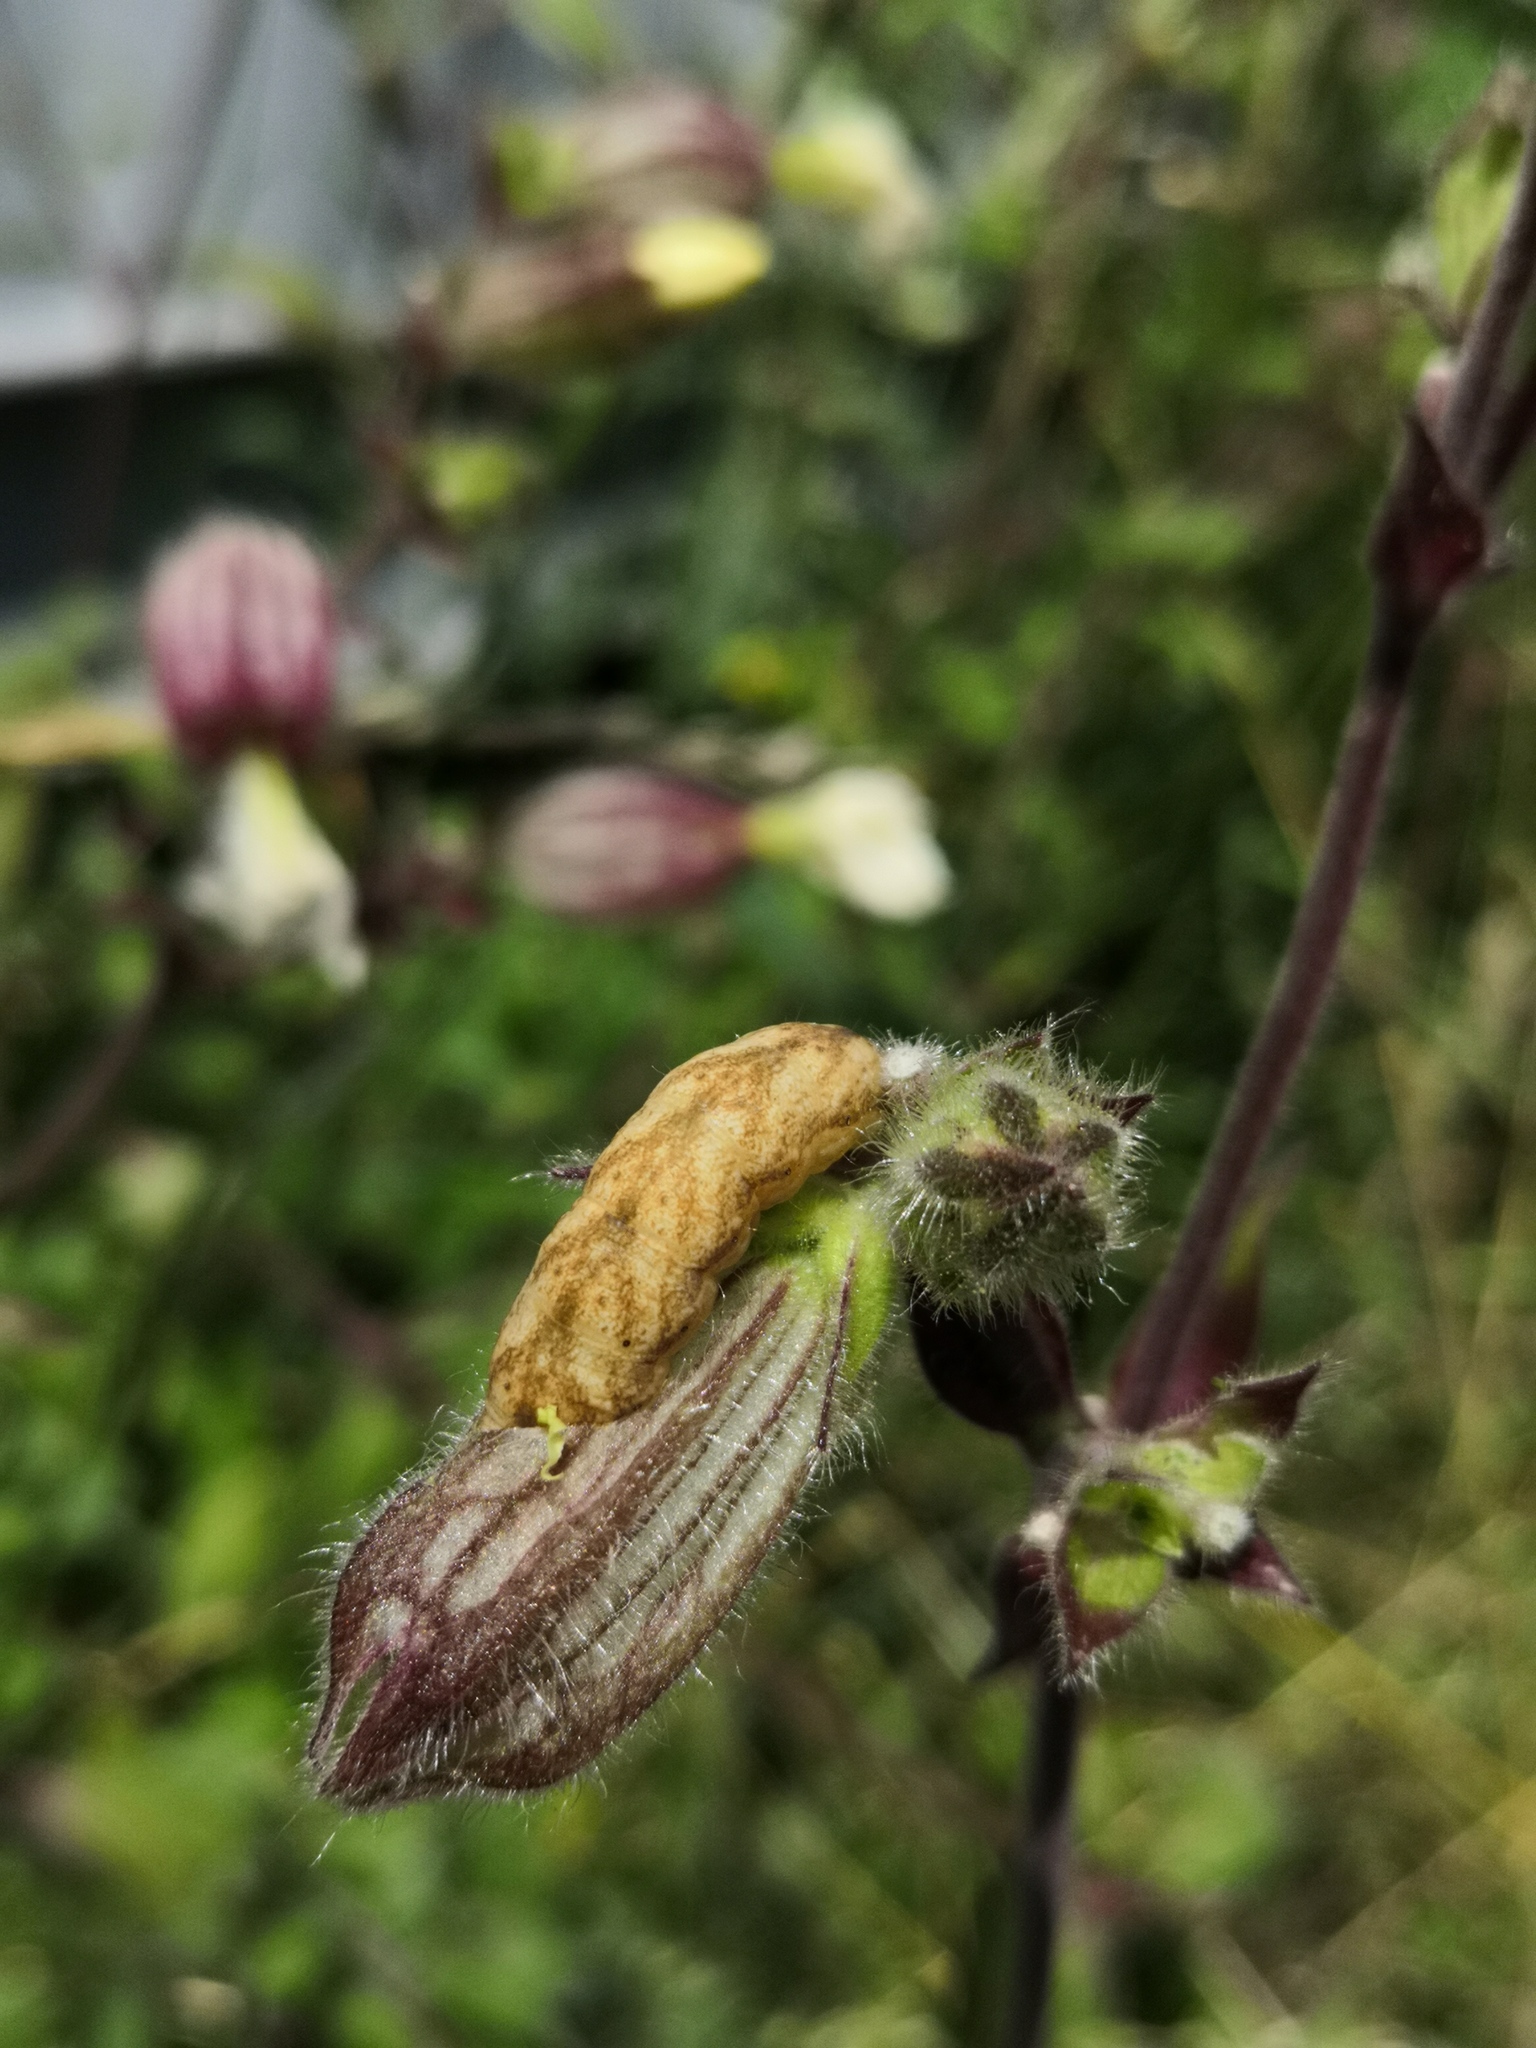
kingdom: Animalia
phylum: Arthropoda
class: Insecta
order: Lepidoptera
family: Noctuidae
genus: Hadena
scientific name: Hadena bicruris
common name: Lychnis
